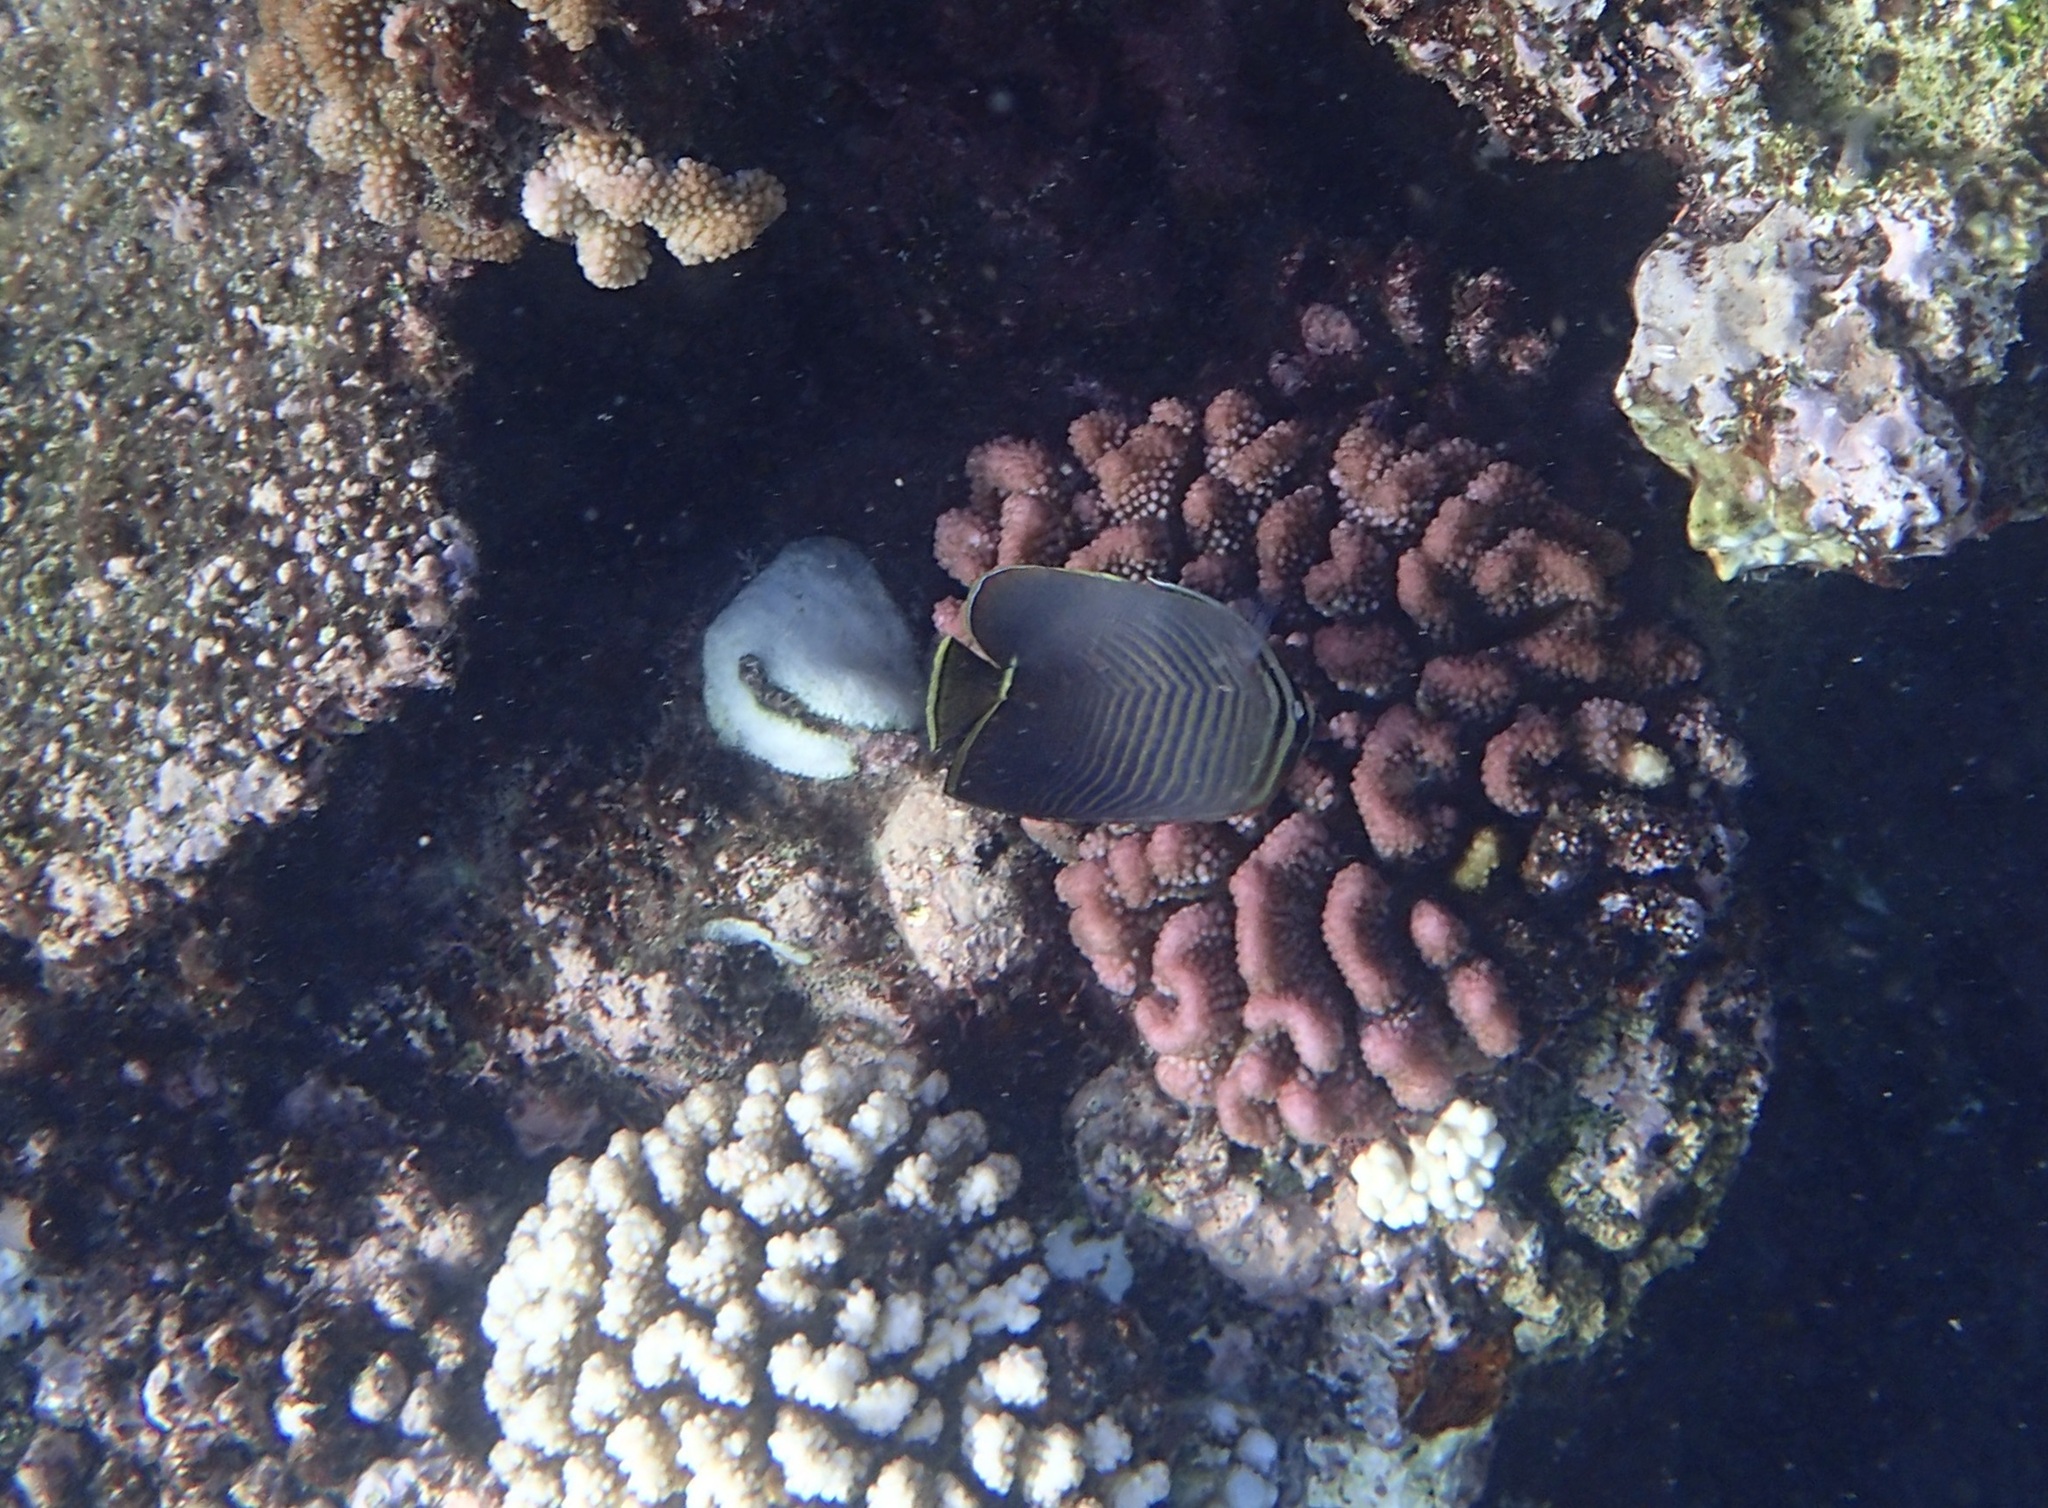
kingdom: Animalia
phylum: Chordata
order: Perciformes
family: Chaetodontidae
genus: Chaetodon
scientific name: Chaetodon baronessa
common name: Triangular butterflyfish
